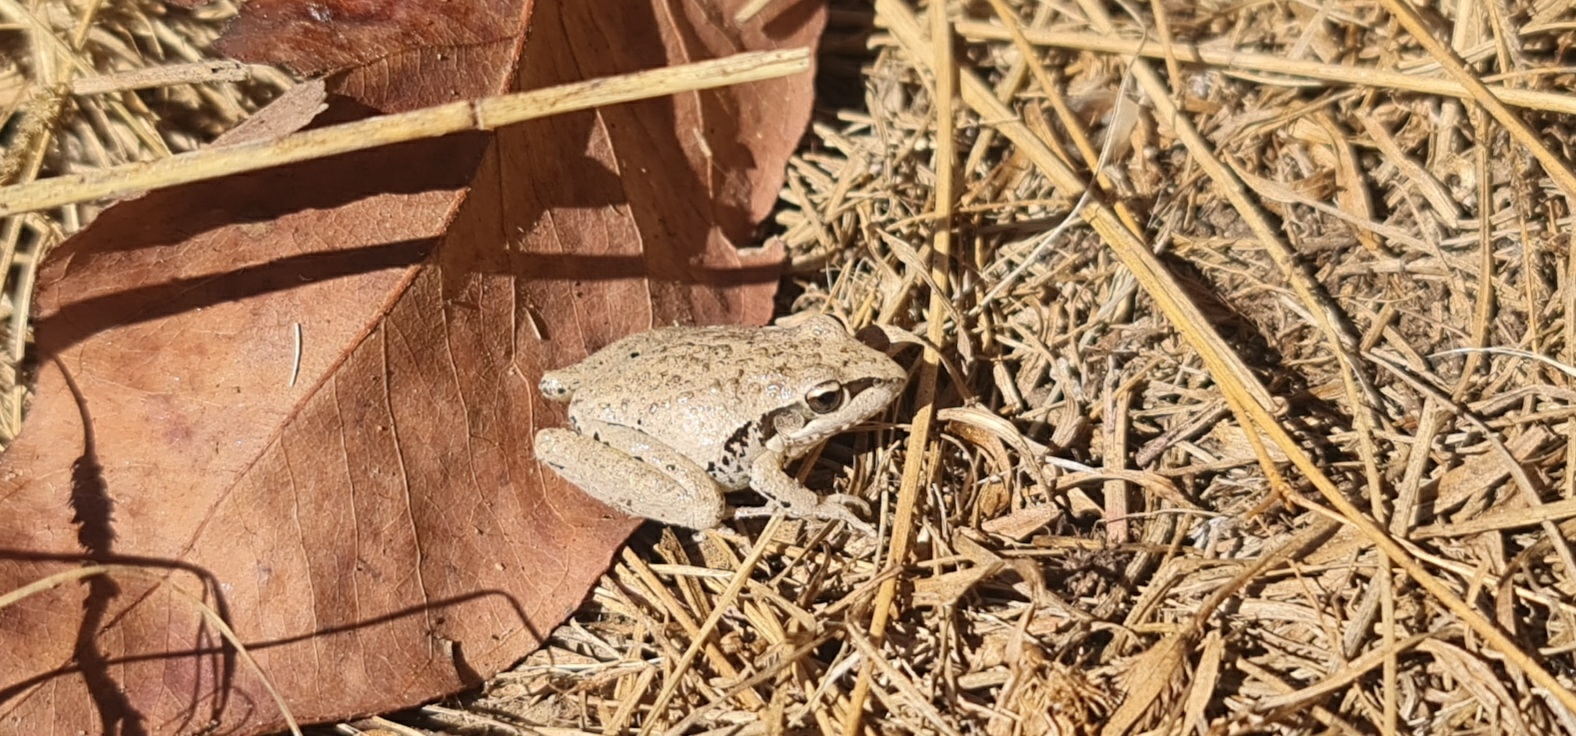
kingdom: Animalia
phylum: Chordata
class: Amphibia
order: Anura
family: Pelodryadidae
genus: Litoria
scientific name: Litoria latopalmata
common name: Broad-palmed rocket frog
